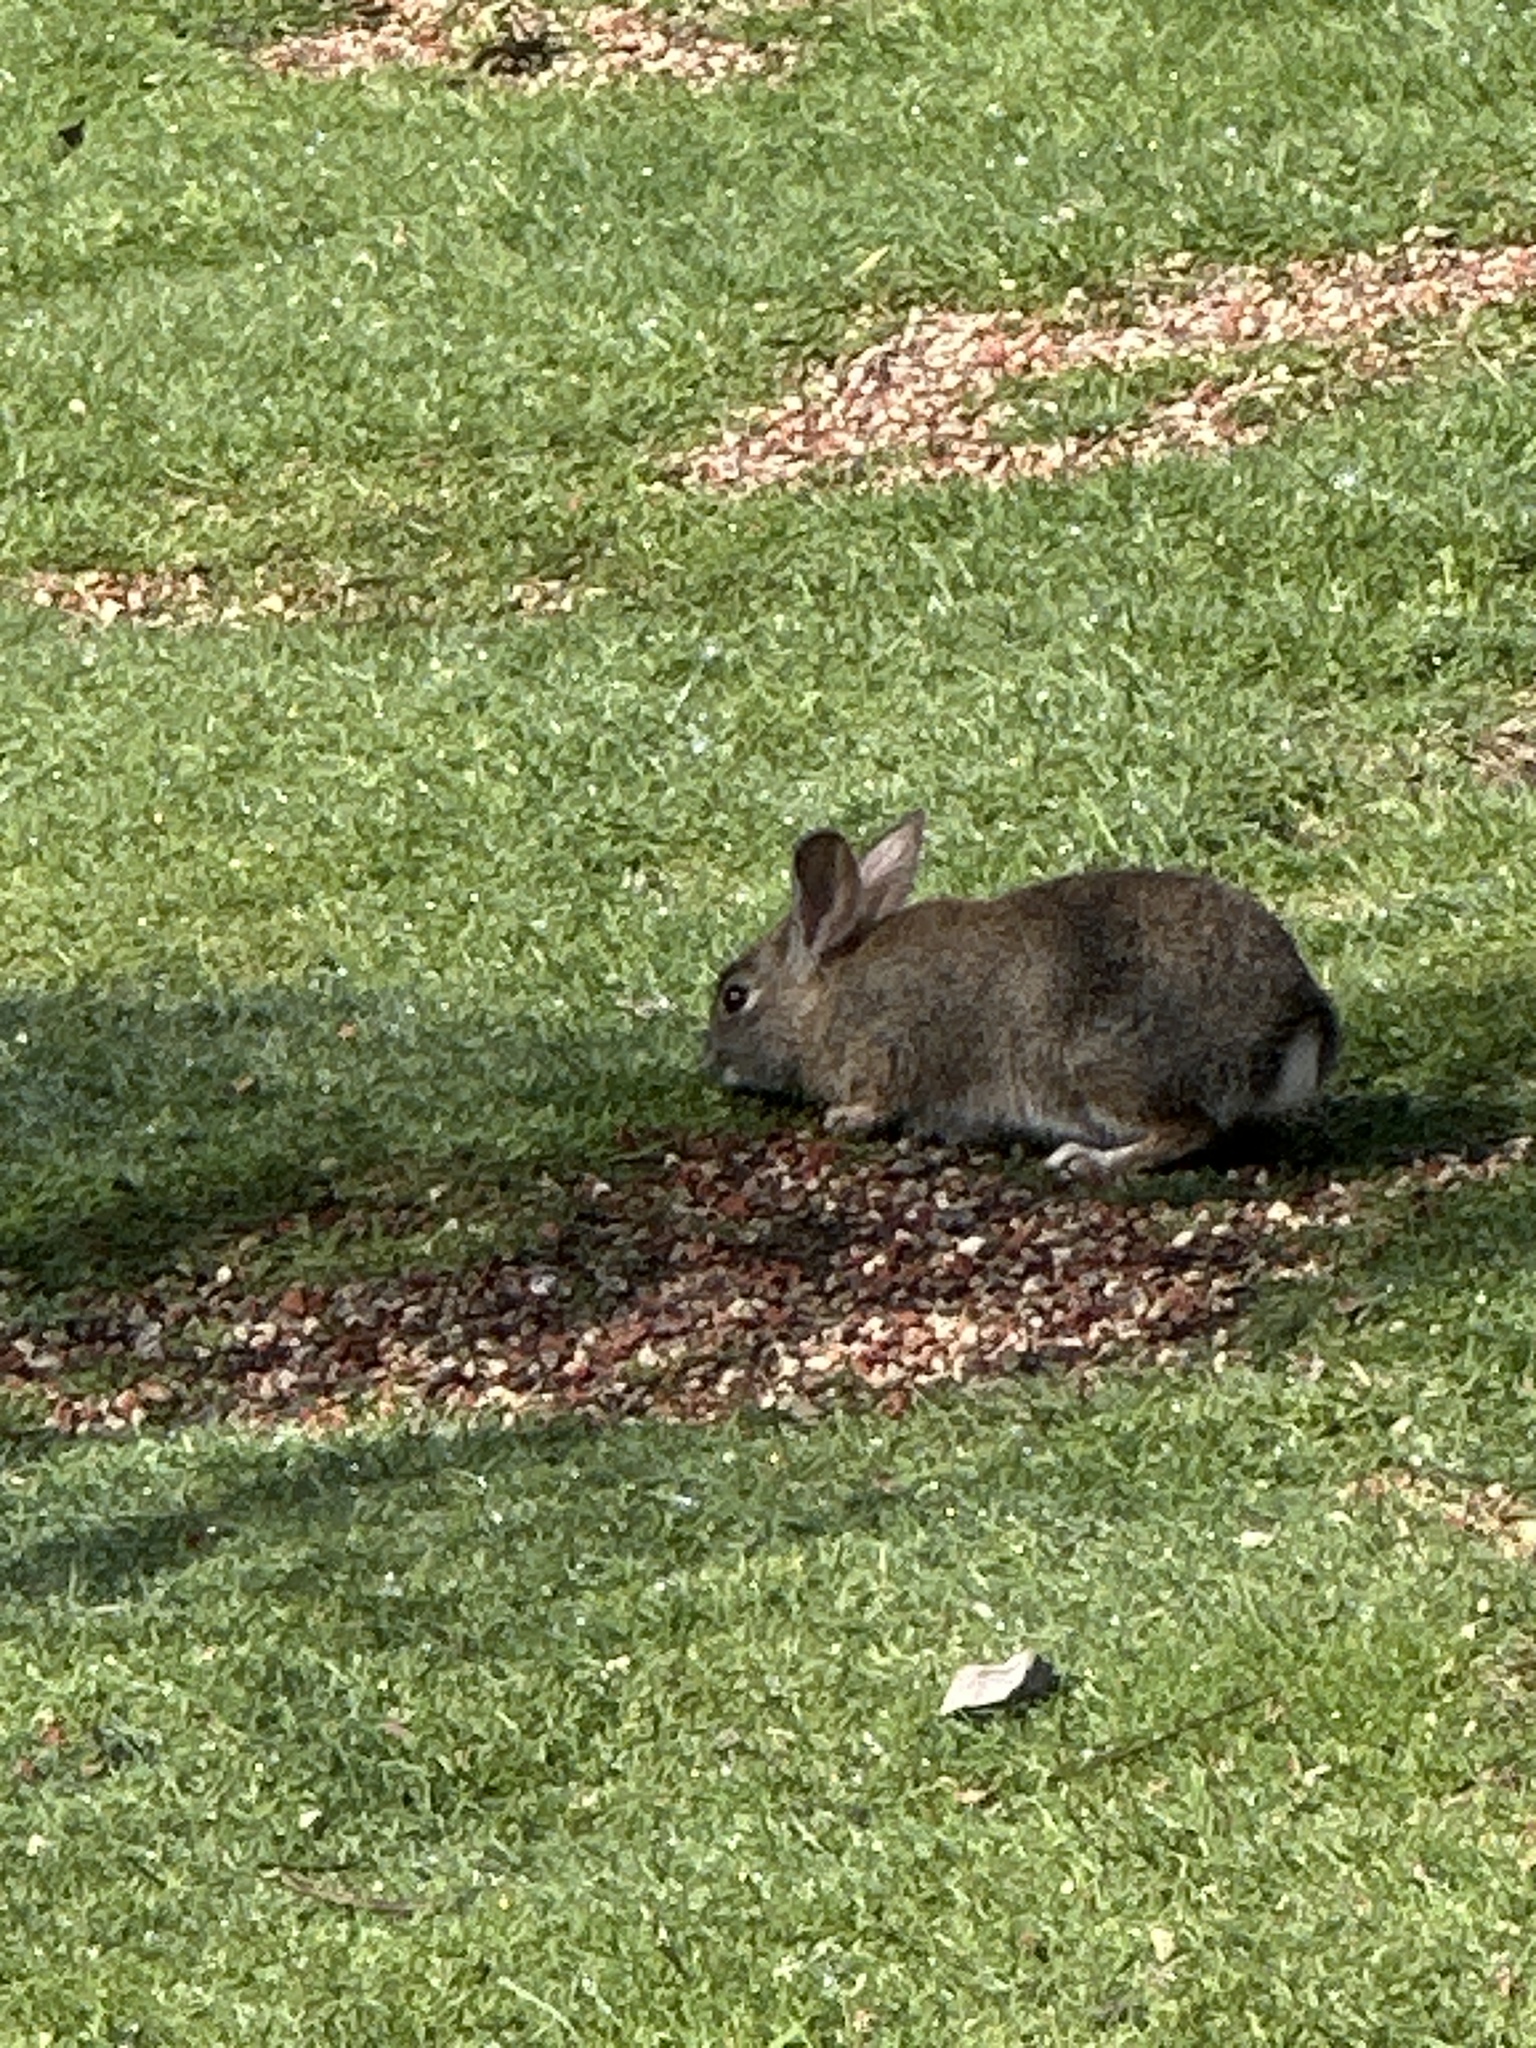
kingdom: Animalia
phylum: Chordata
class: Mammalia
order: Lagomorpha
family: Leporidae
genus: Sylvilagus
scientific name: Sylvilagus bachmani
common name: Brush rabbit
